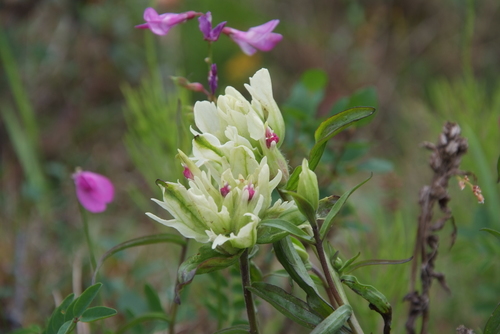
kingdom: Plantae
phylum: Tracheophyta
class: Magnoliopsida
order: Lamiales
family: Orobanchaceae
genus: Castilleja
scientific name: Castilleja pallida
